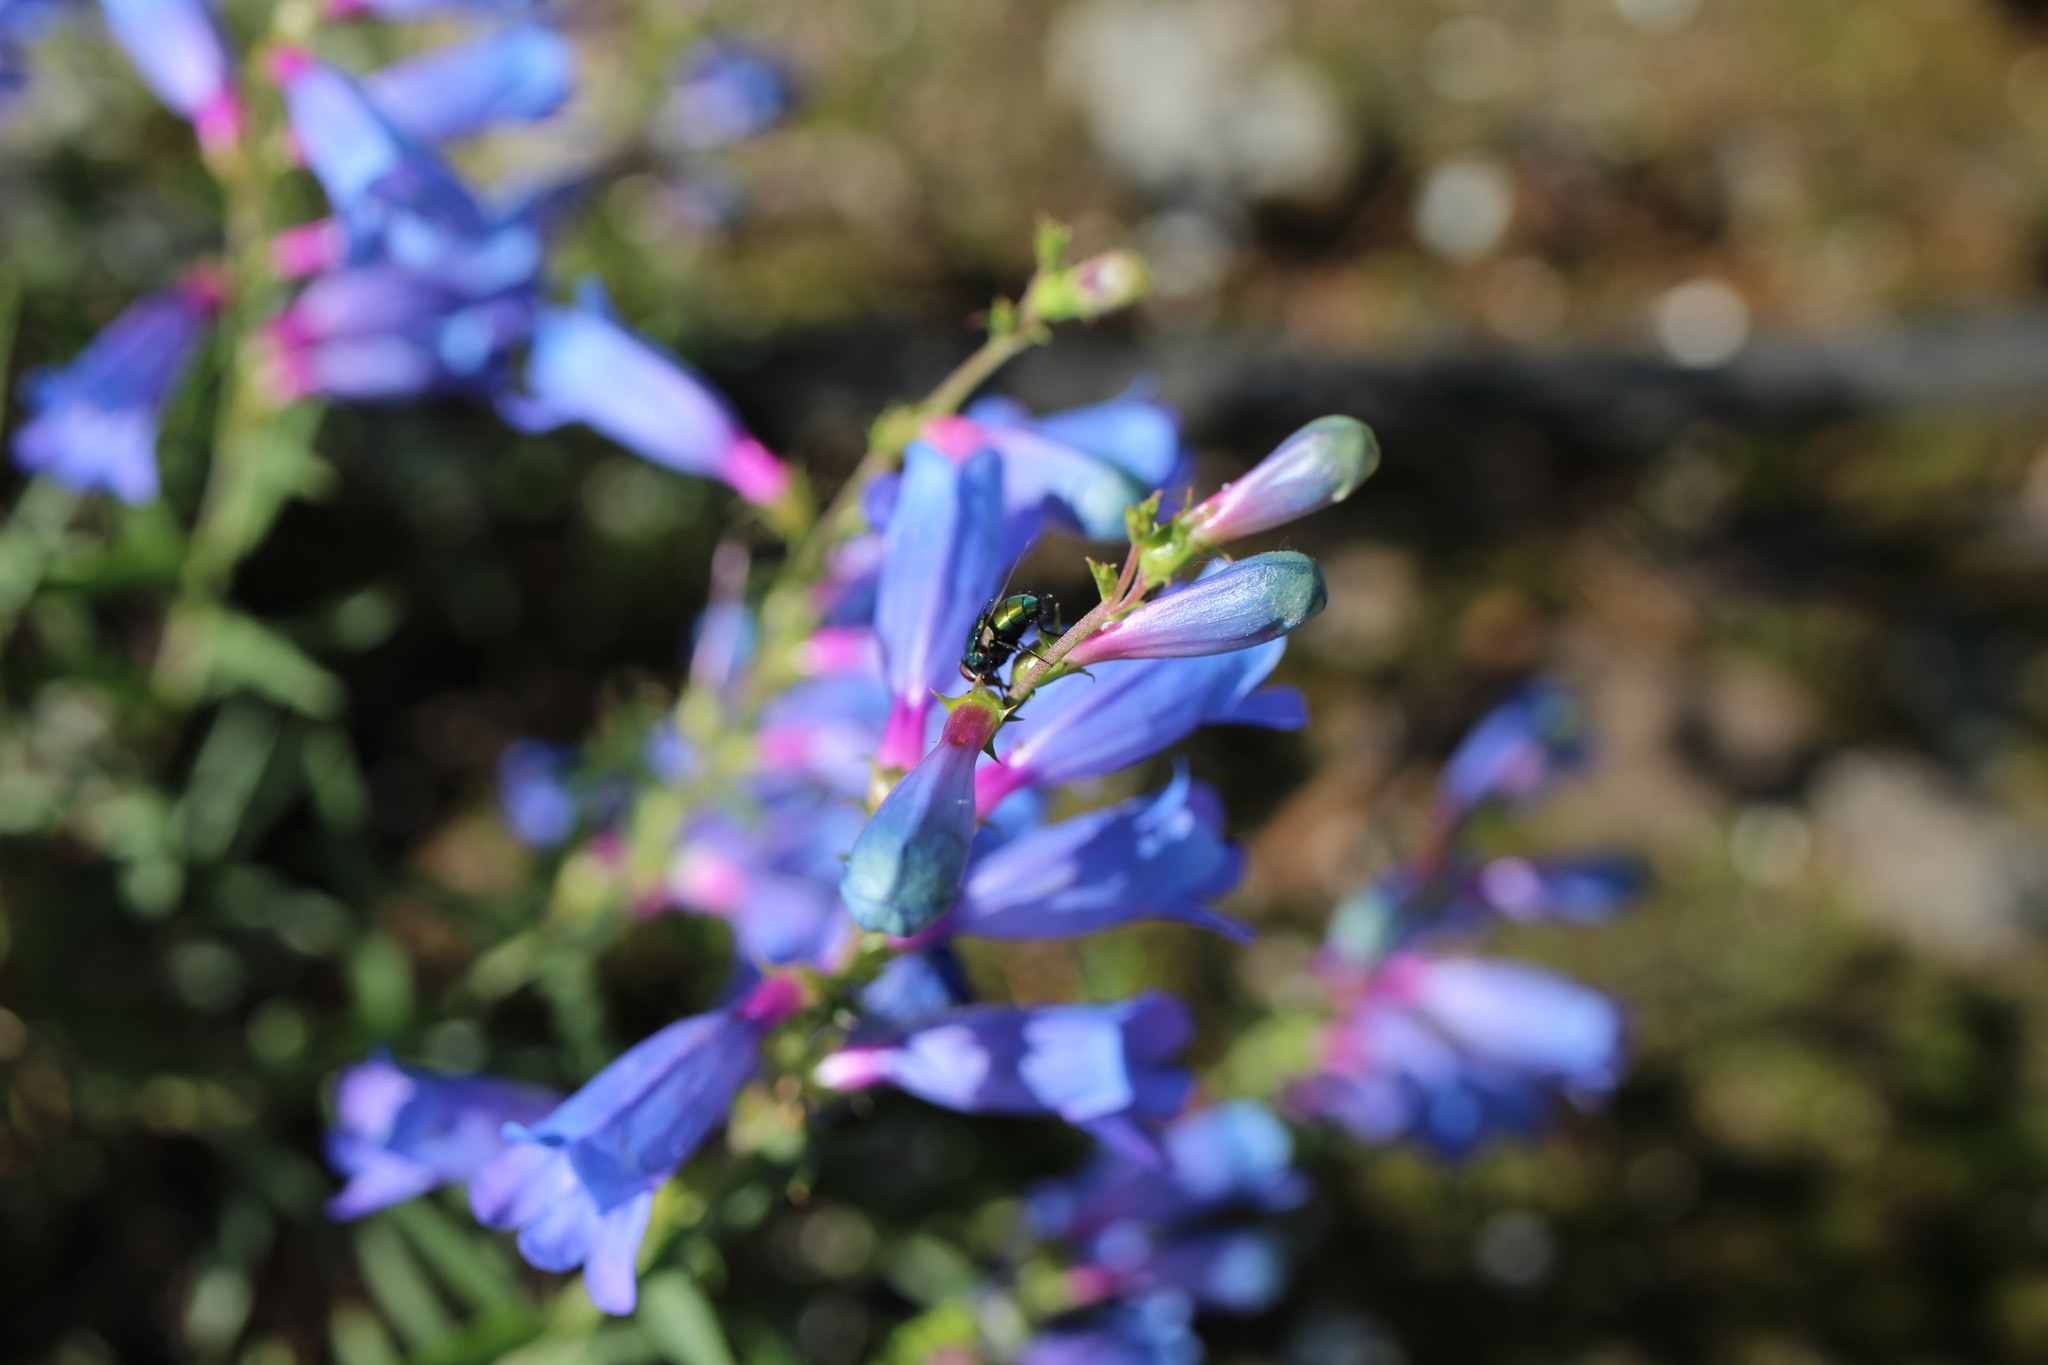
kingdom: Animalia
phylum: Arthropoda
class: Insecta
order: Diptera
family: Calliphoridae
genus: Lucilia
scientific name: Lucilia sericata
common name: Blow fly
